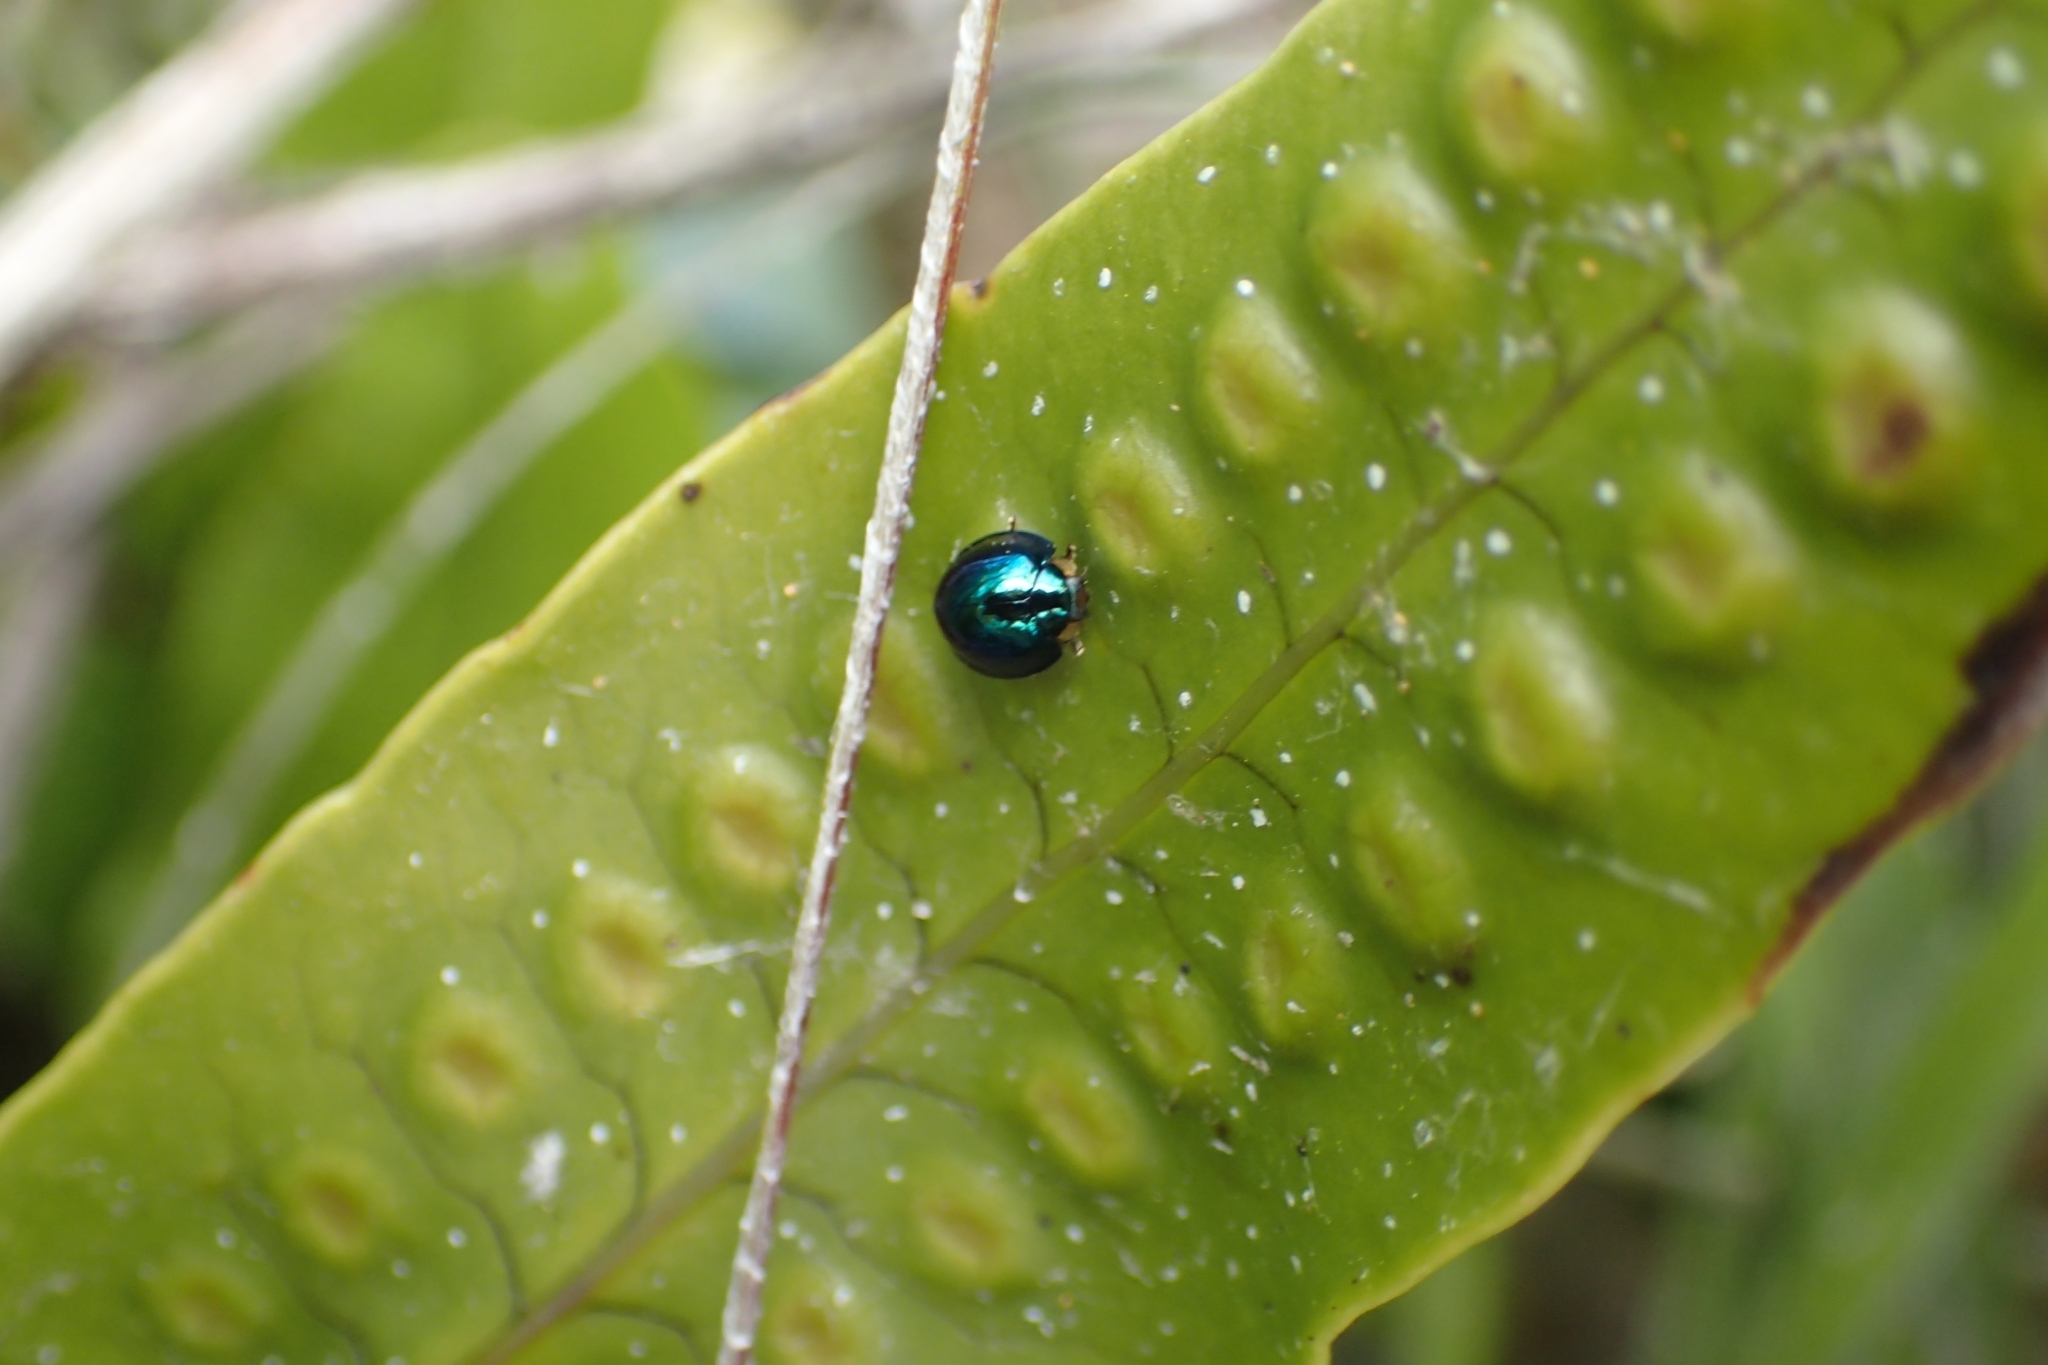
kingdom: Animalia
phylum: Arthropoda
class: Insecta
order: Coleoptera
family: Coccinellidae
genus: Halmus
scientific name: Halmus chalybeus
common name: Steel blue ladybird beetle
